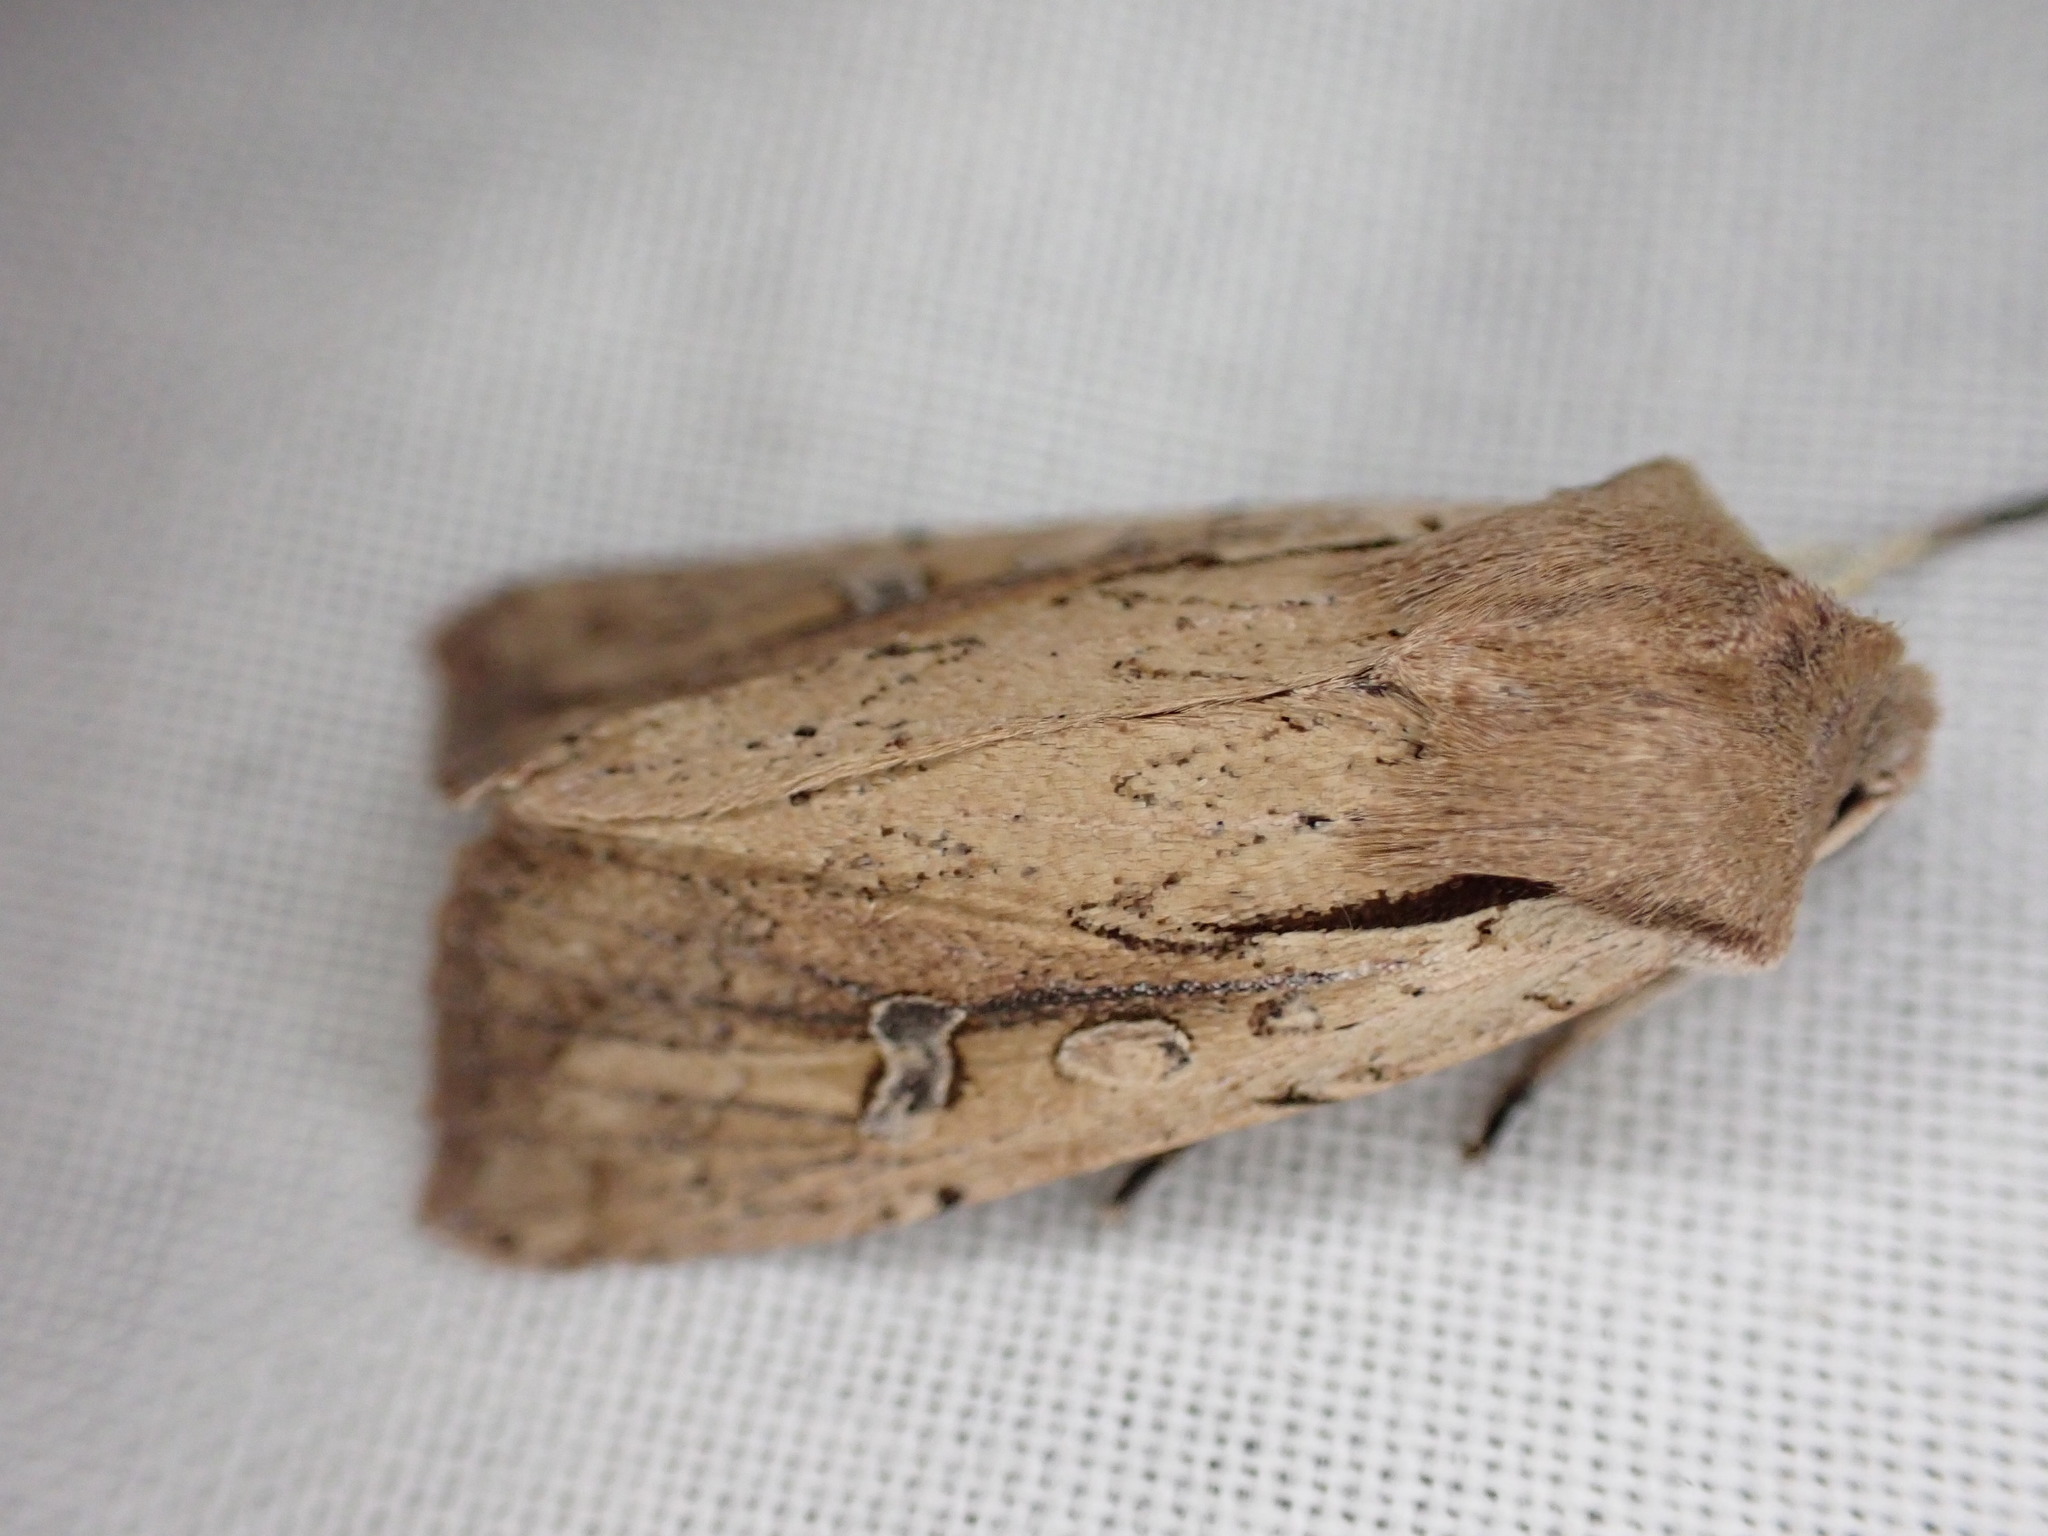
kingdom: Animalia
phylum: Arthropoda
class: Insecta
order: Lepidoptera
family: Noctuidae
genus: Ichneutica
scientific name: Ichneutica atristriga
